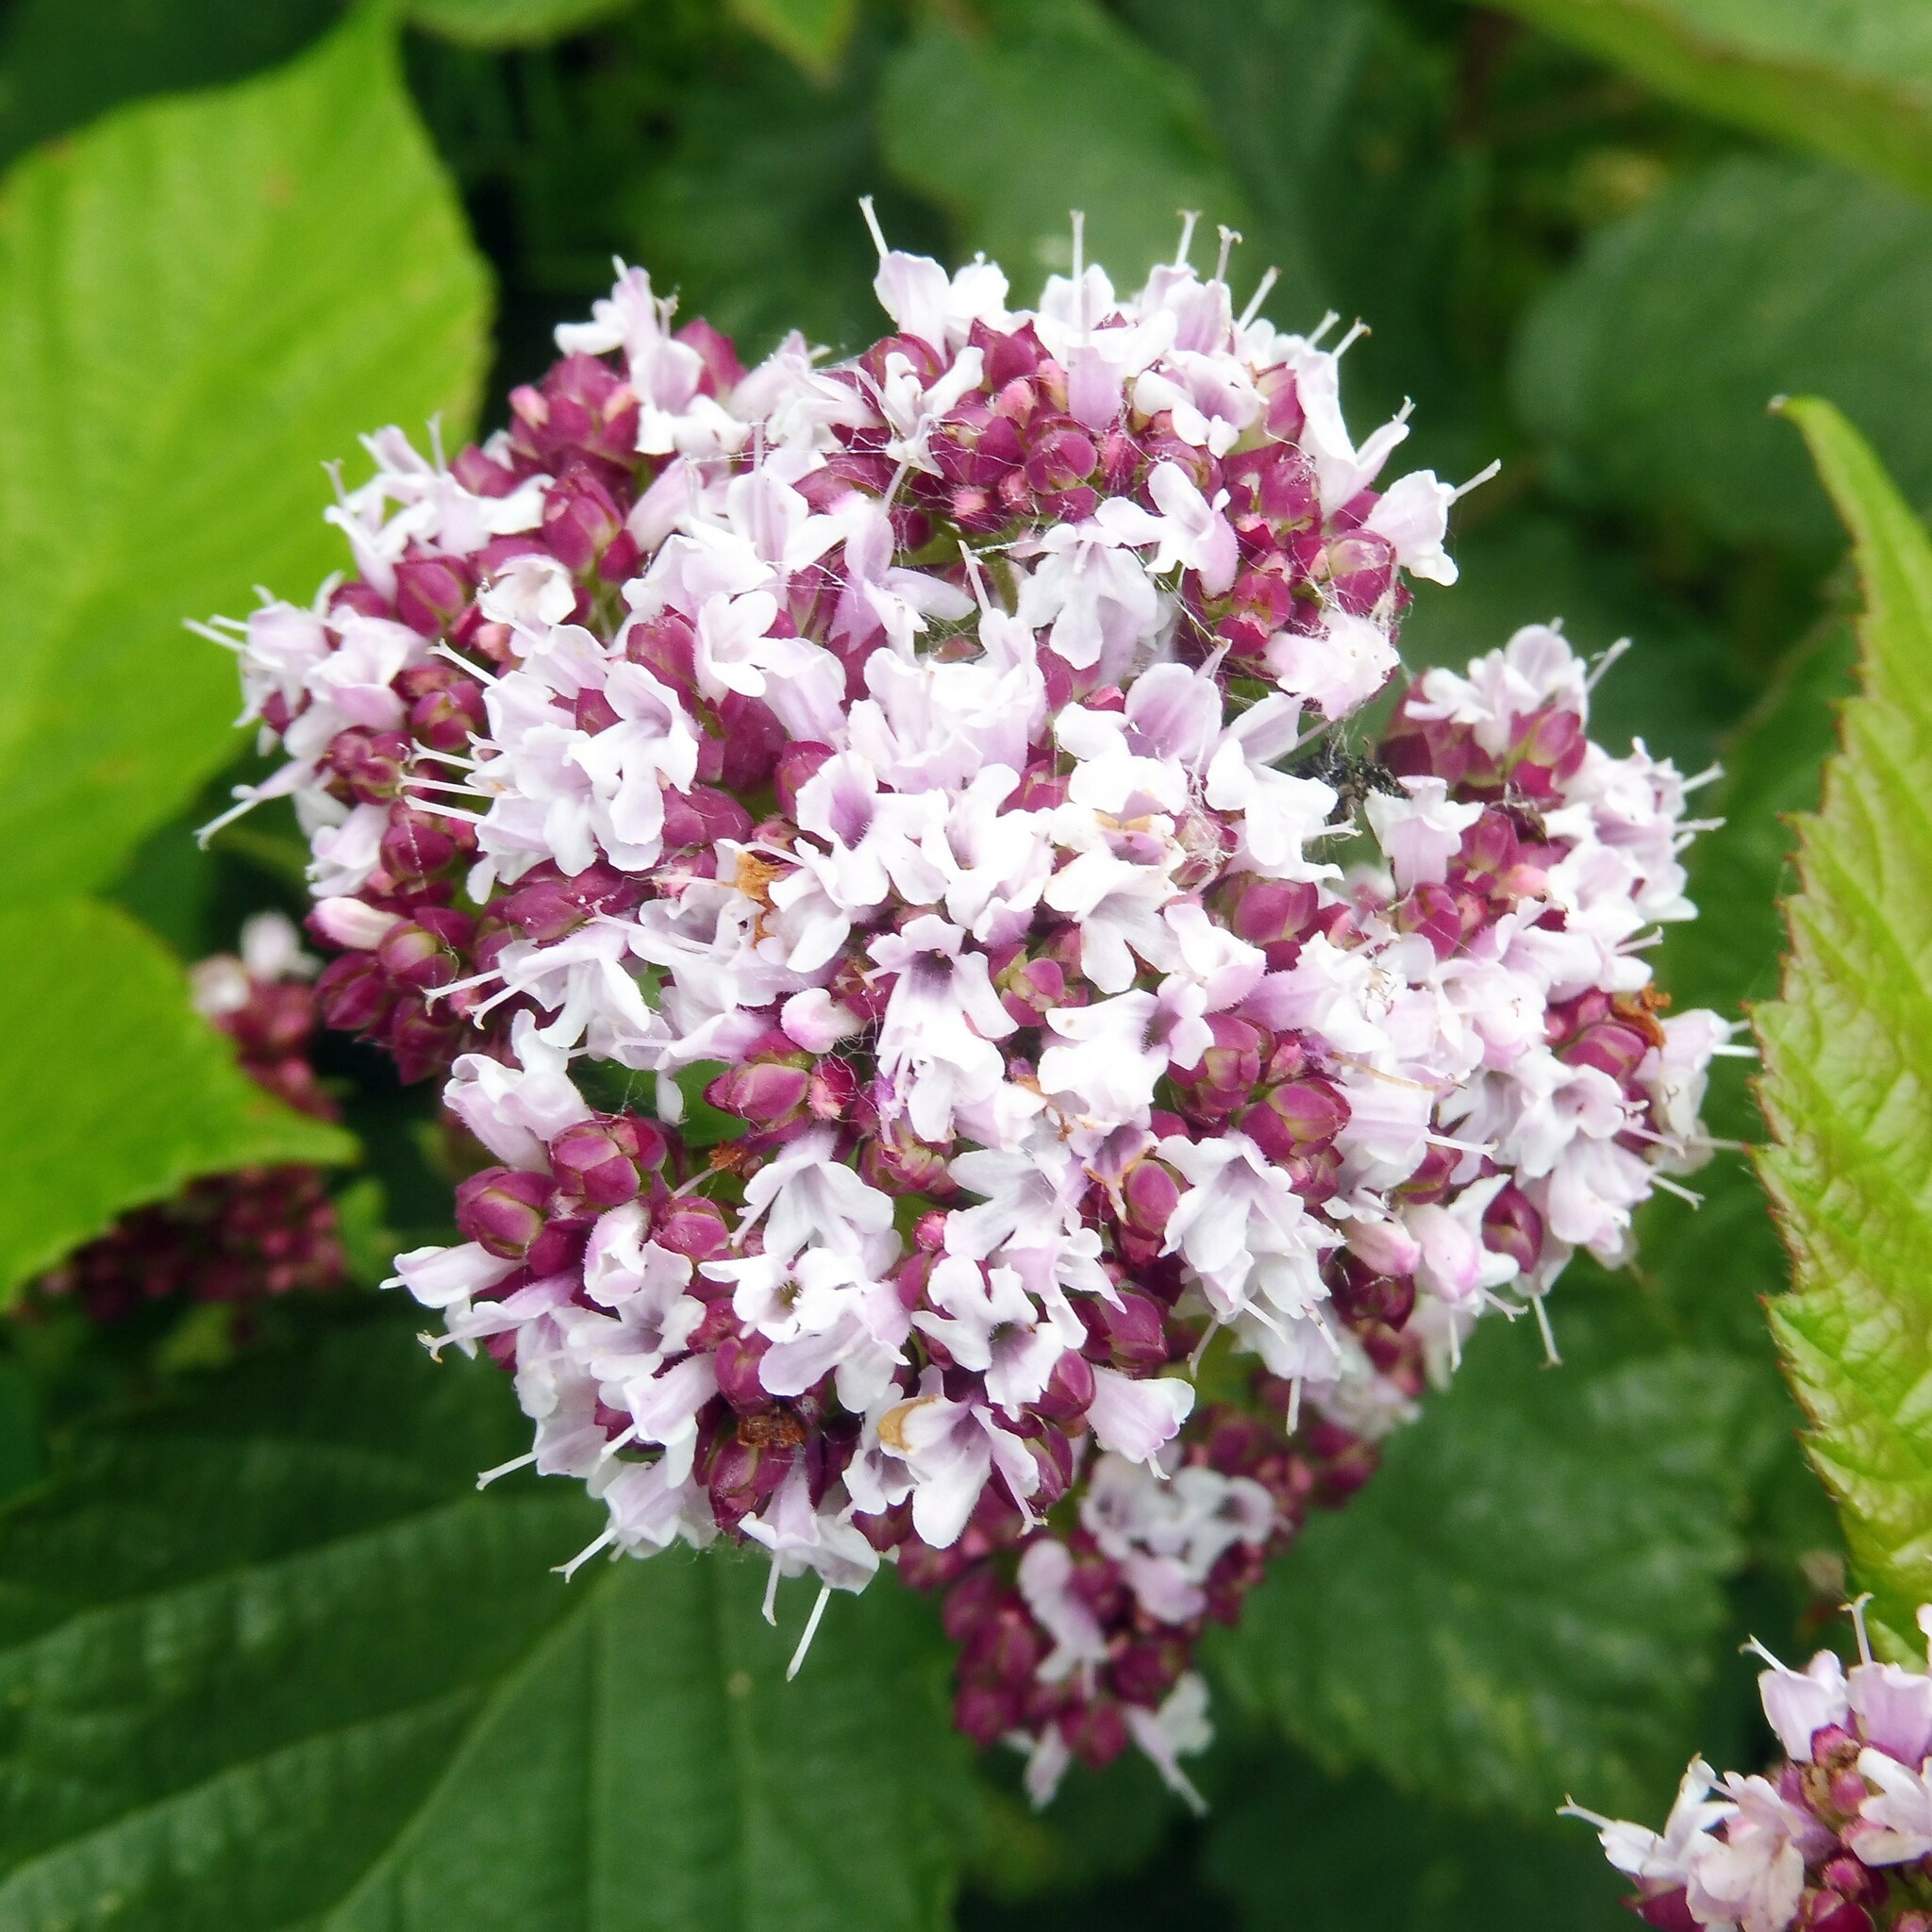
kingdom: Plantae
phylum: Tracheophyta
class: Magnoliopsida
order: Lamiales
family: Lamiaceae
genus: Origanum
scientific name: Origanum vulgare
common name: Wild marjoram
